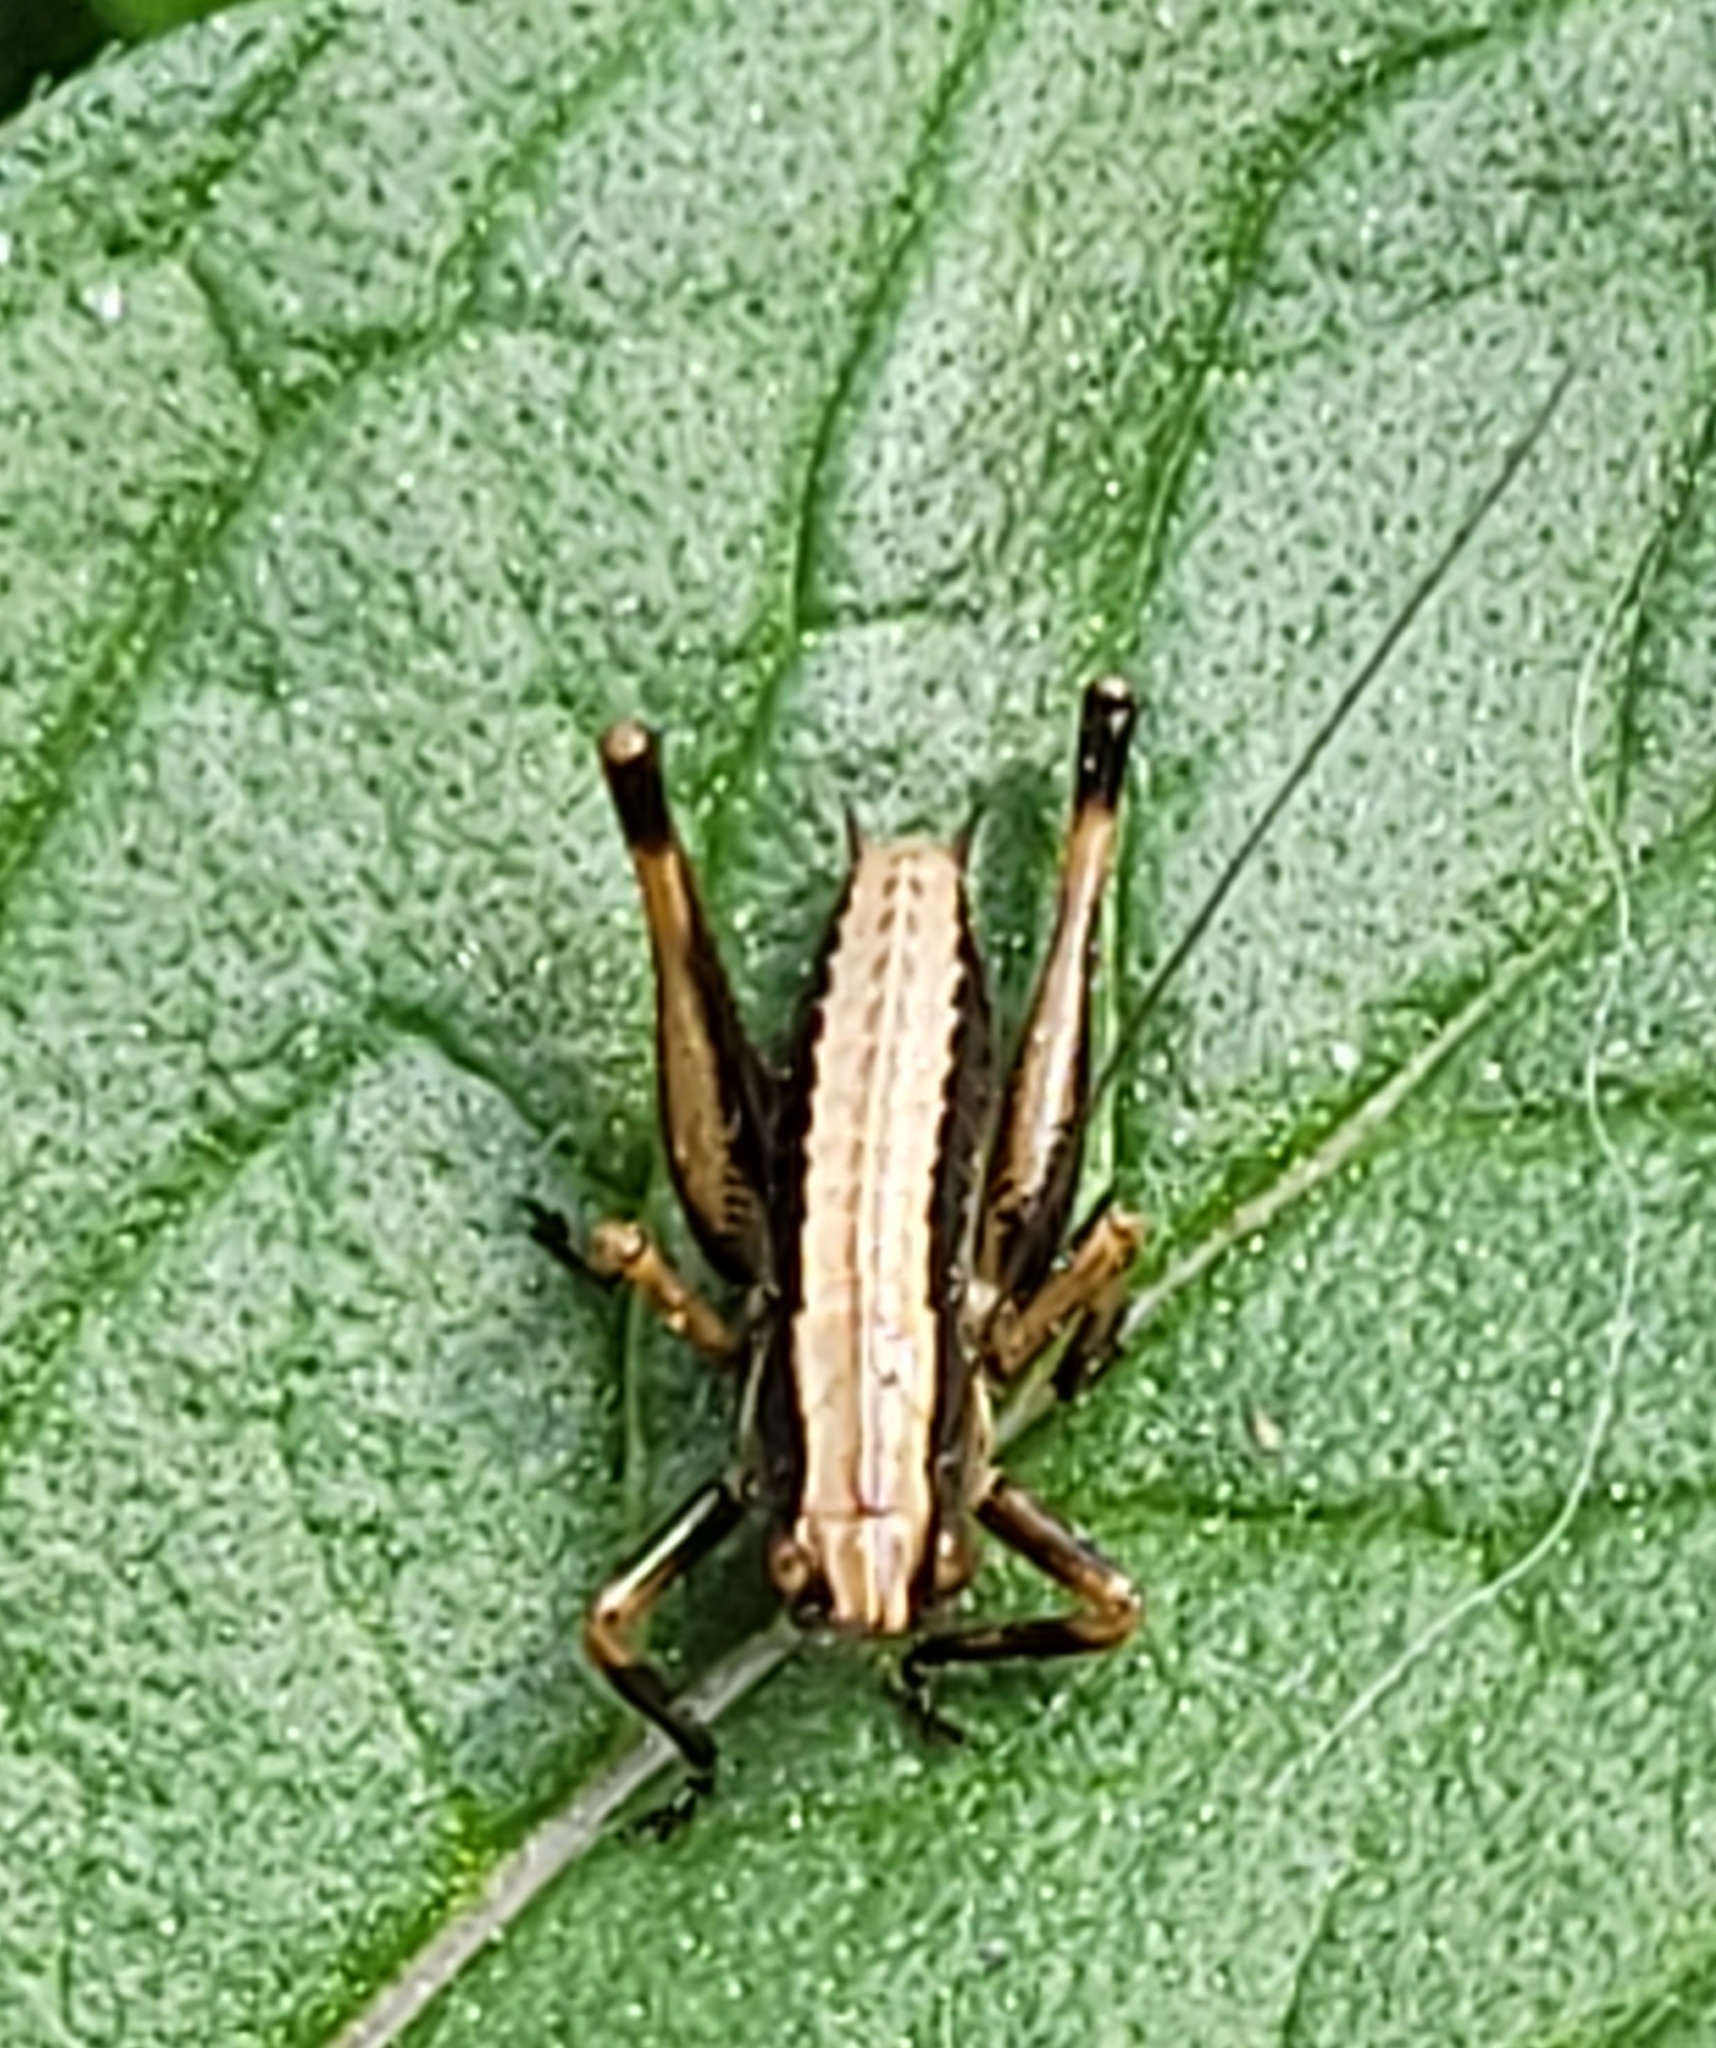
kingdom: Animalia
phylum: Arthropoda
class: Insecta
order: Orthoptera
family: Tettigoniidae
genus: Pholidoptera
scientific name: Pholidoptera griseoaptera
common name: Dark bush-cricket
